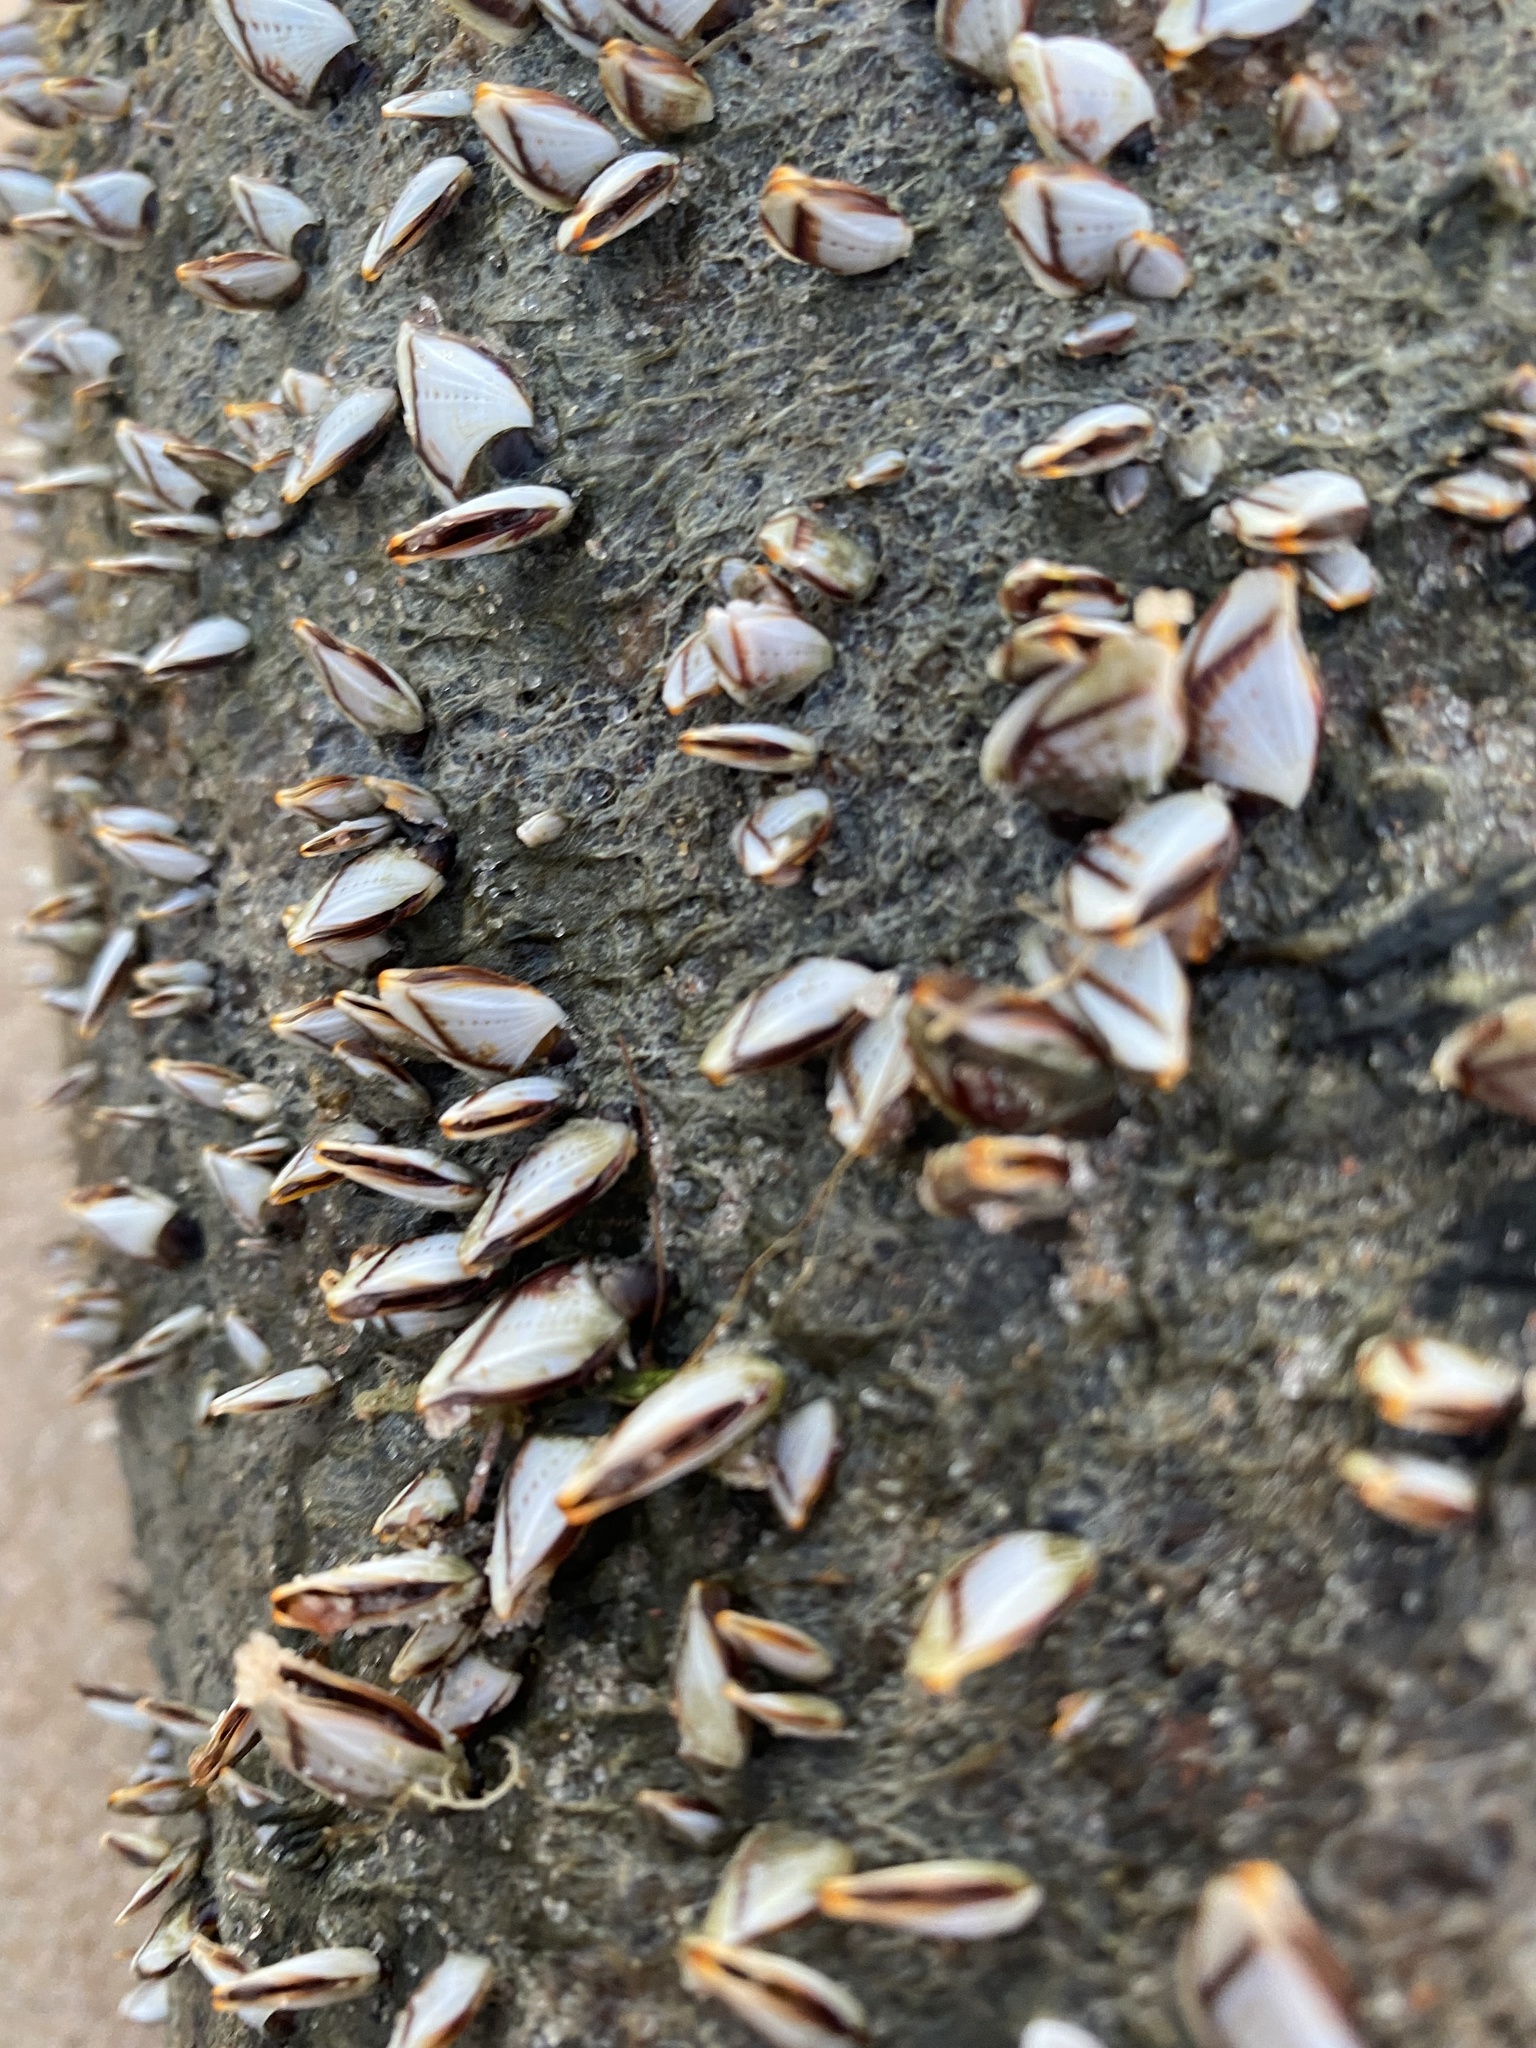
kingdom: Animalia
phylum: Arthropoda
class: Maxillopoda
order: Pedunculata
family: Lepadidae
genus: Lepas
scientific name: Lepas indica
